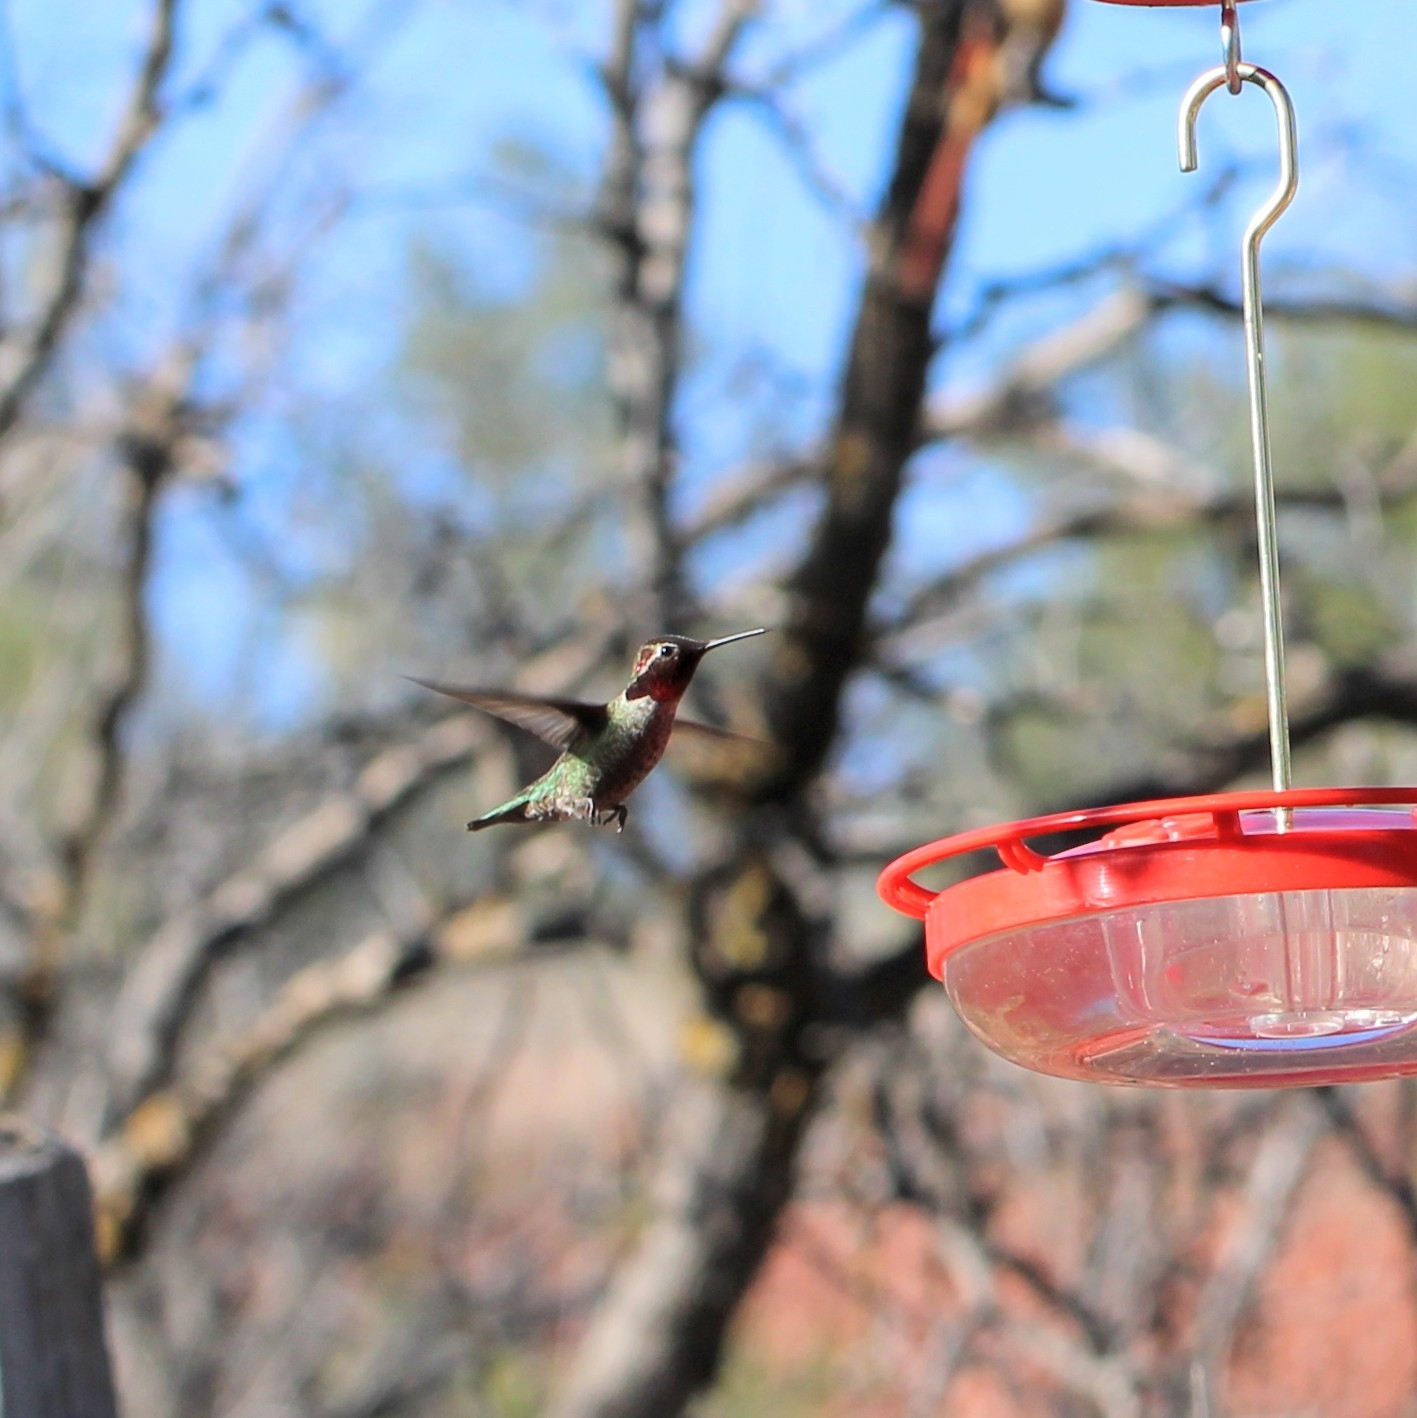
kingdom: Animalia
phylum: Chordata
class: Aves
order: Apodiformes
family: Trochilidae
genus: Calypte
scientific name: Calypte anna
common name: Anna's hummingbird
